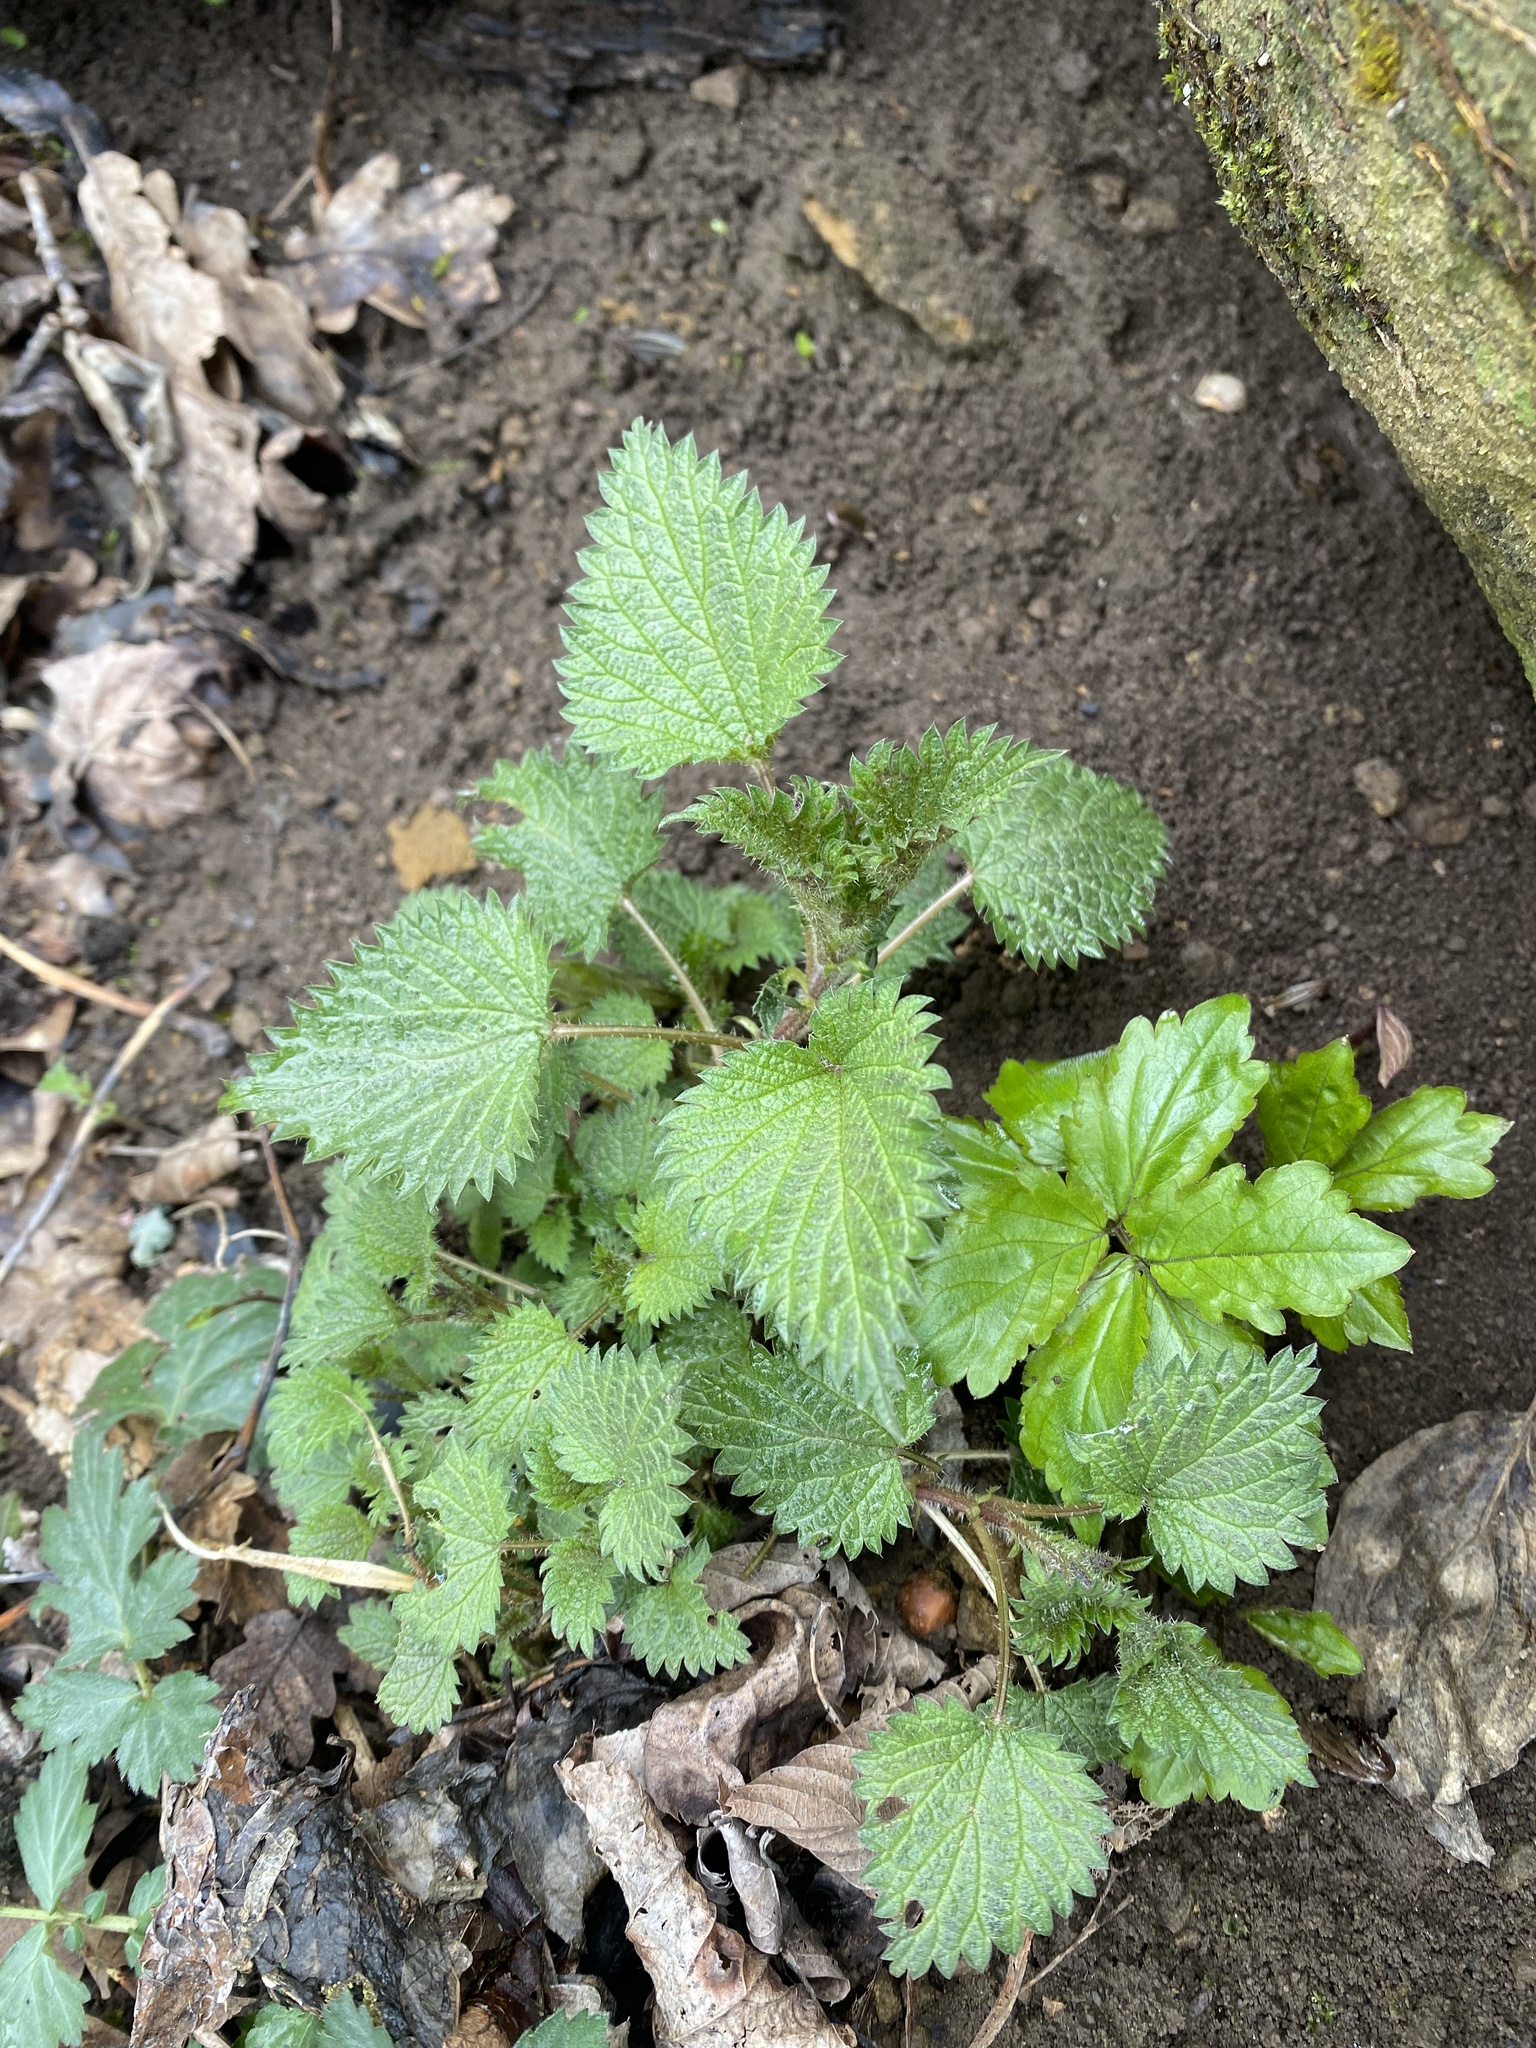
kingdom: Plantae
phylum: Tracheophyta
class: Magnoliopsida
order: Rosales
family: Urticaceae
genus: Urtica
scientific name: Urtica dioica
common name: Common nettle
